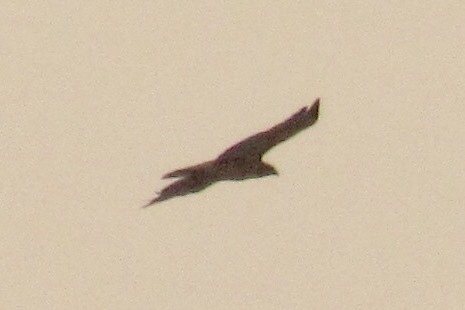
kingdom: Animalia
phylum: Chordata
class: Aves
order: Accipitriformes
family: Accipitridae
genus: Buteo
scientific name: Buteo jamaicensis
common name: Red-tailed hawk
